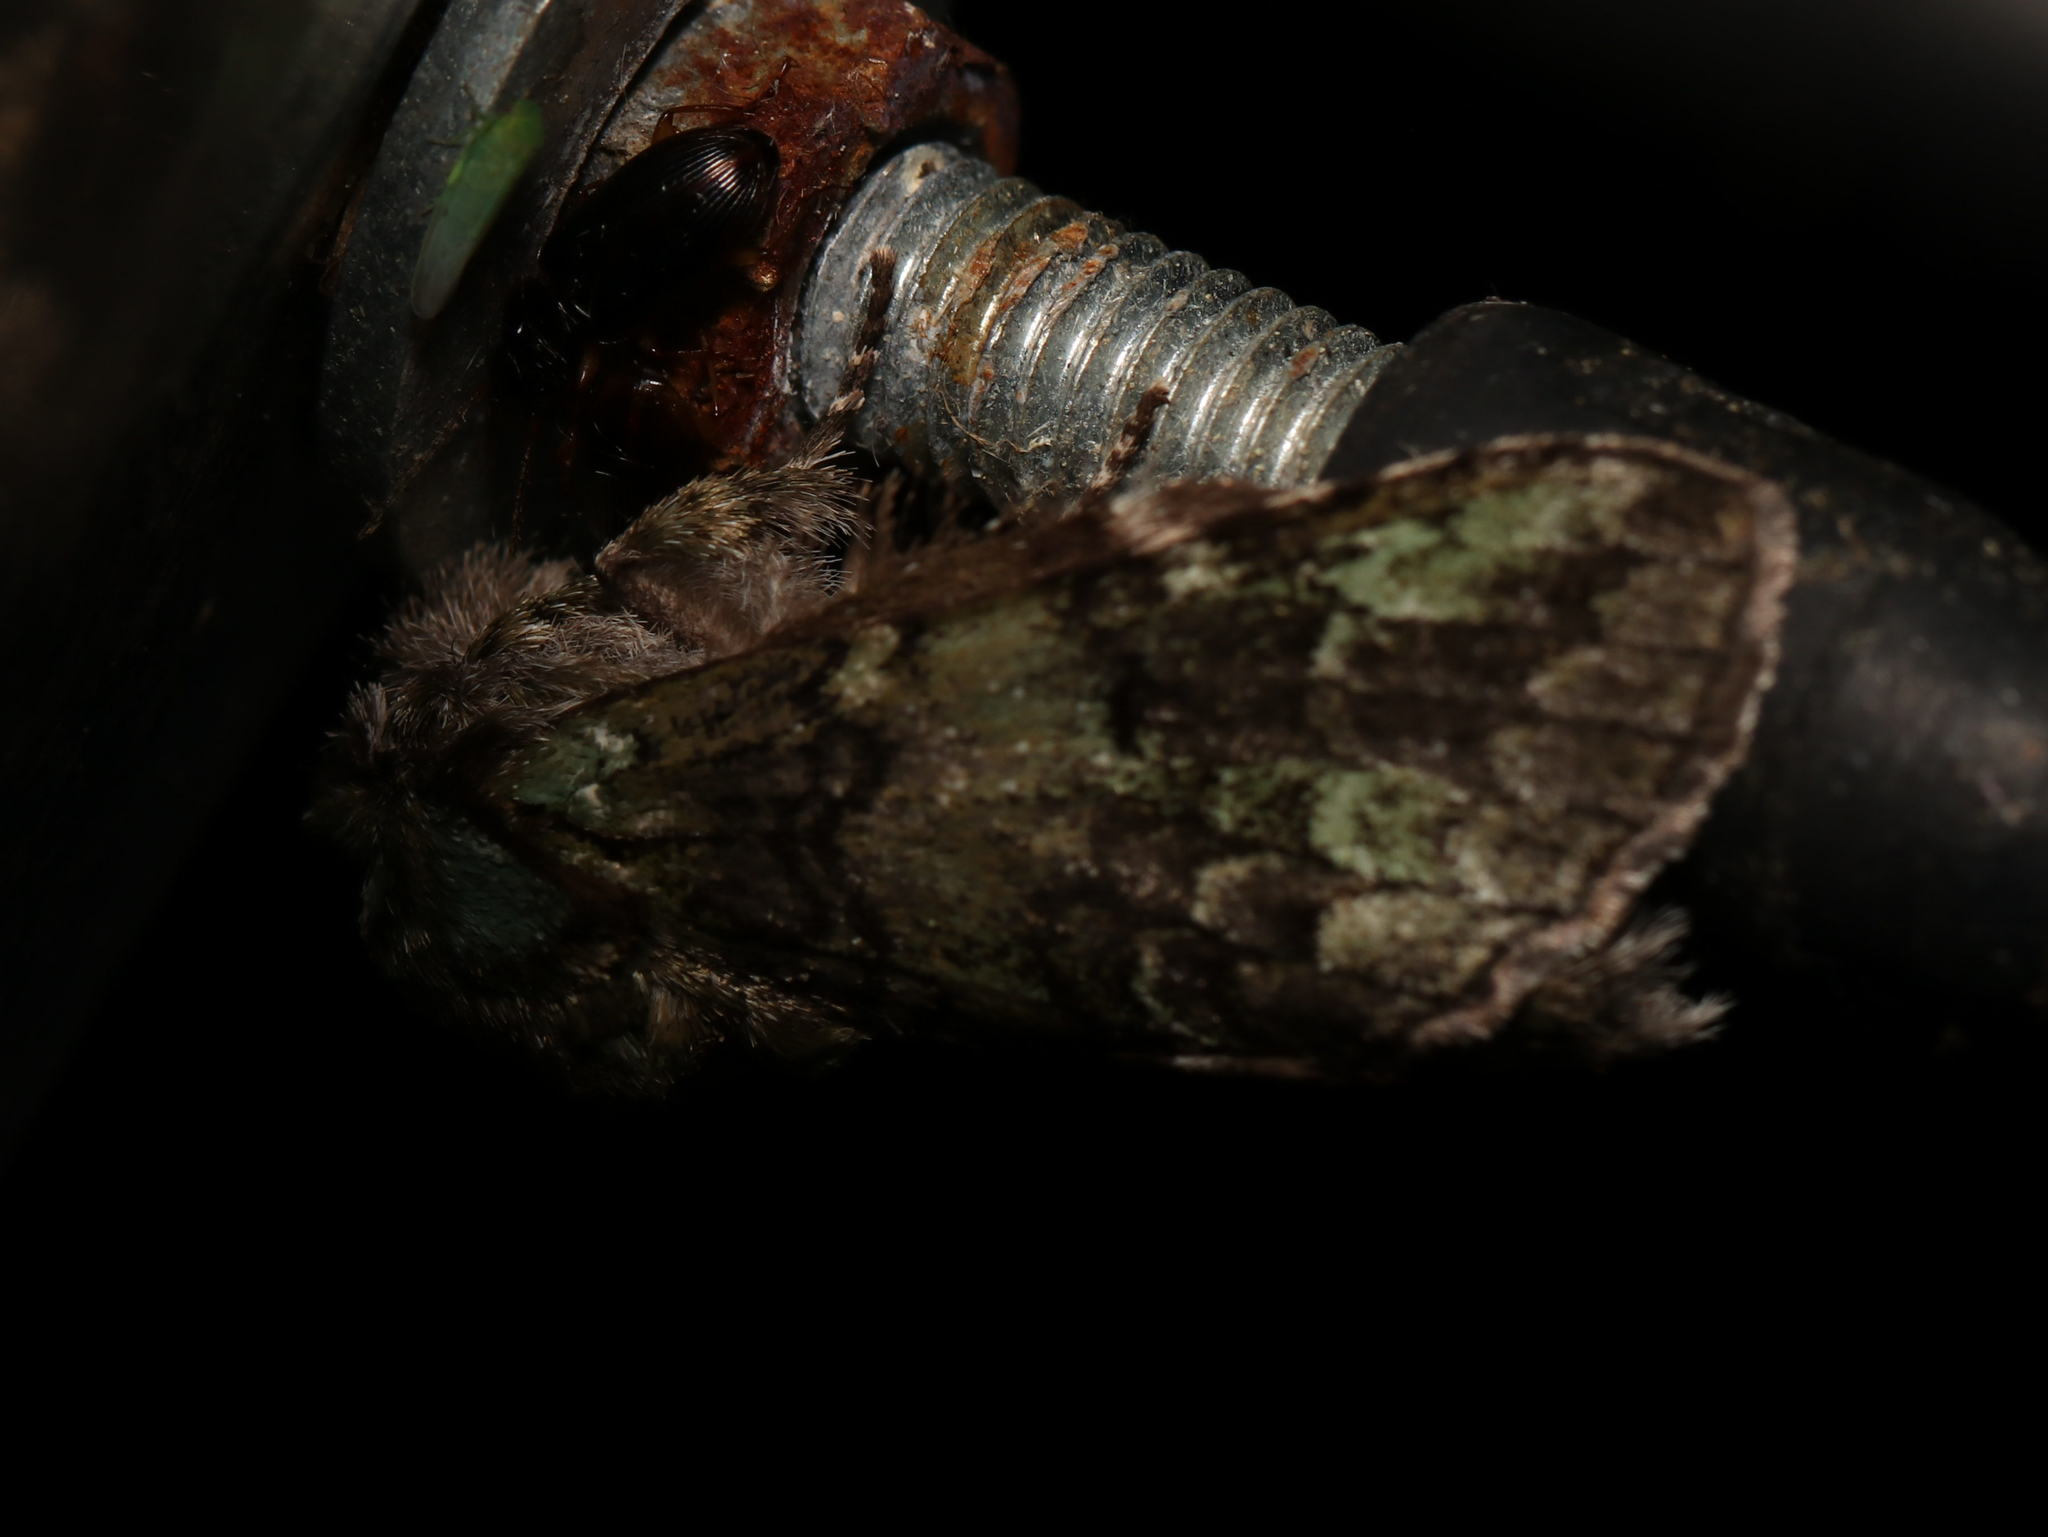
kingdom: Animalia
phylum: Arthropoda
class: Insecta
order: Lepidoptera
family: Notodontidae
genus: Macrurocampa
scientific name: Macrurocampa marthesia
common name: Mottled prominent
